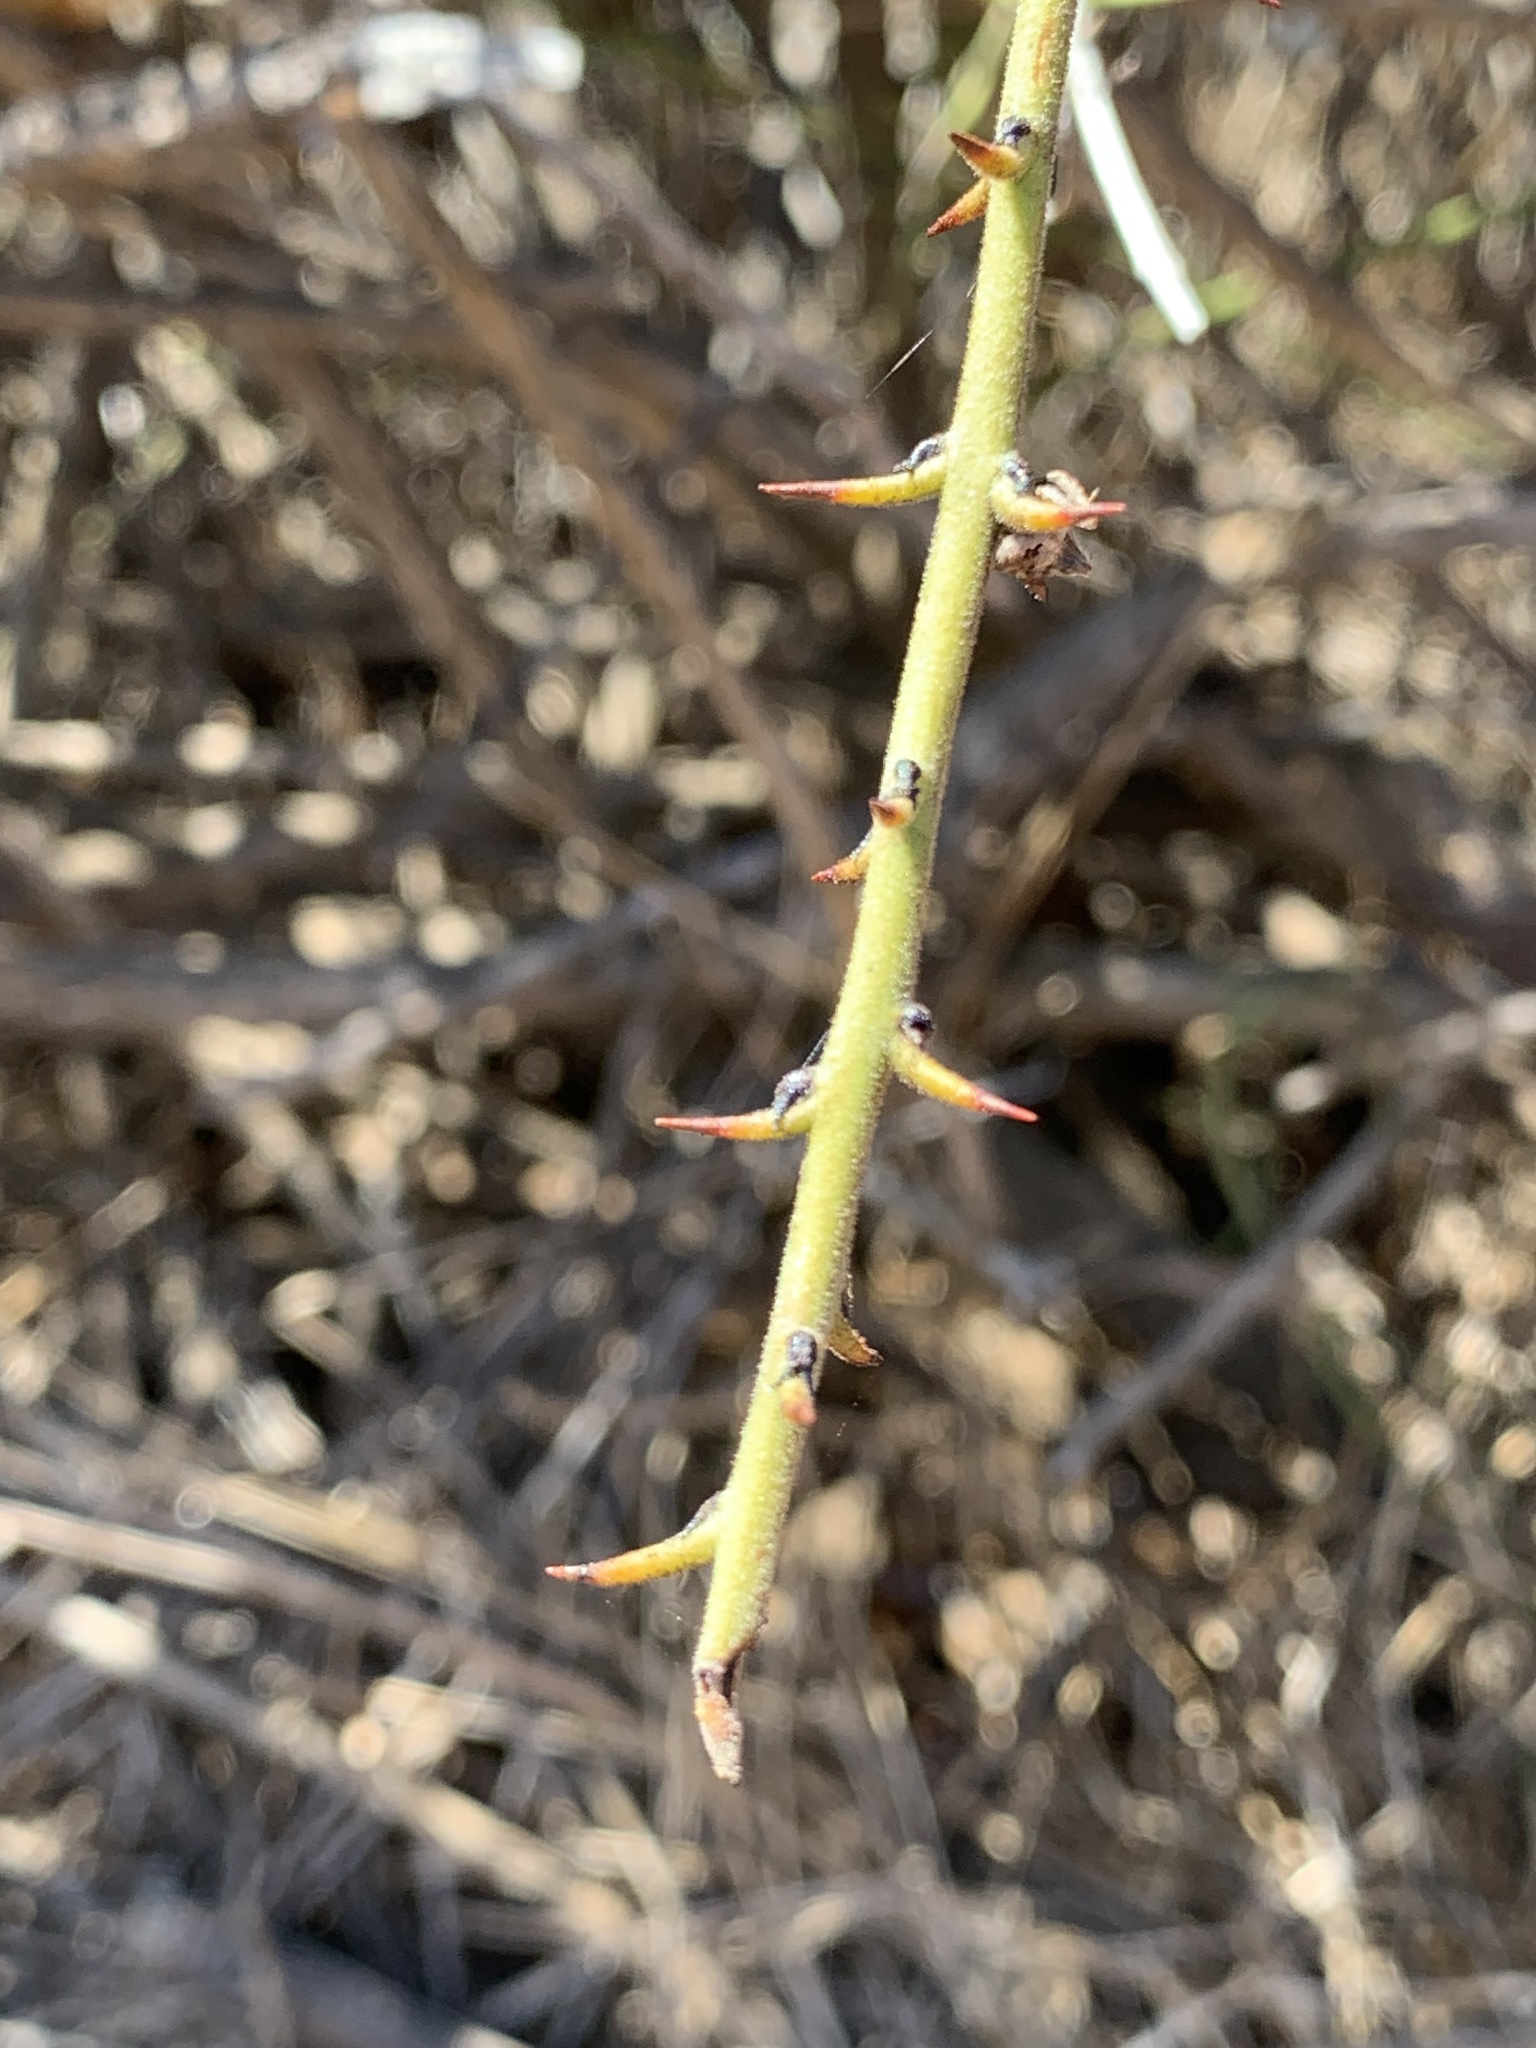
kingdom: Plantae
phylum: Tracheophyta
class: Magnoliopsida
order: Rosales
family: Rhamnaceae
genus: Adolphia
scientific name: Adolphia californica
